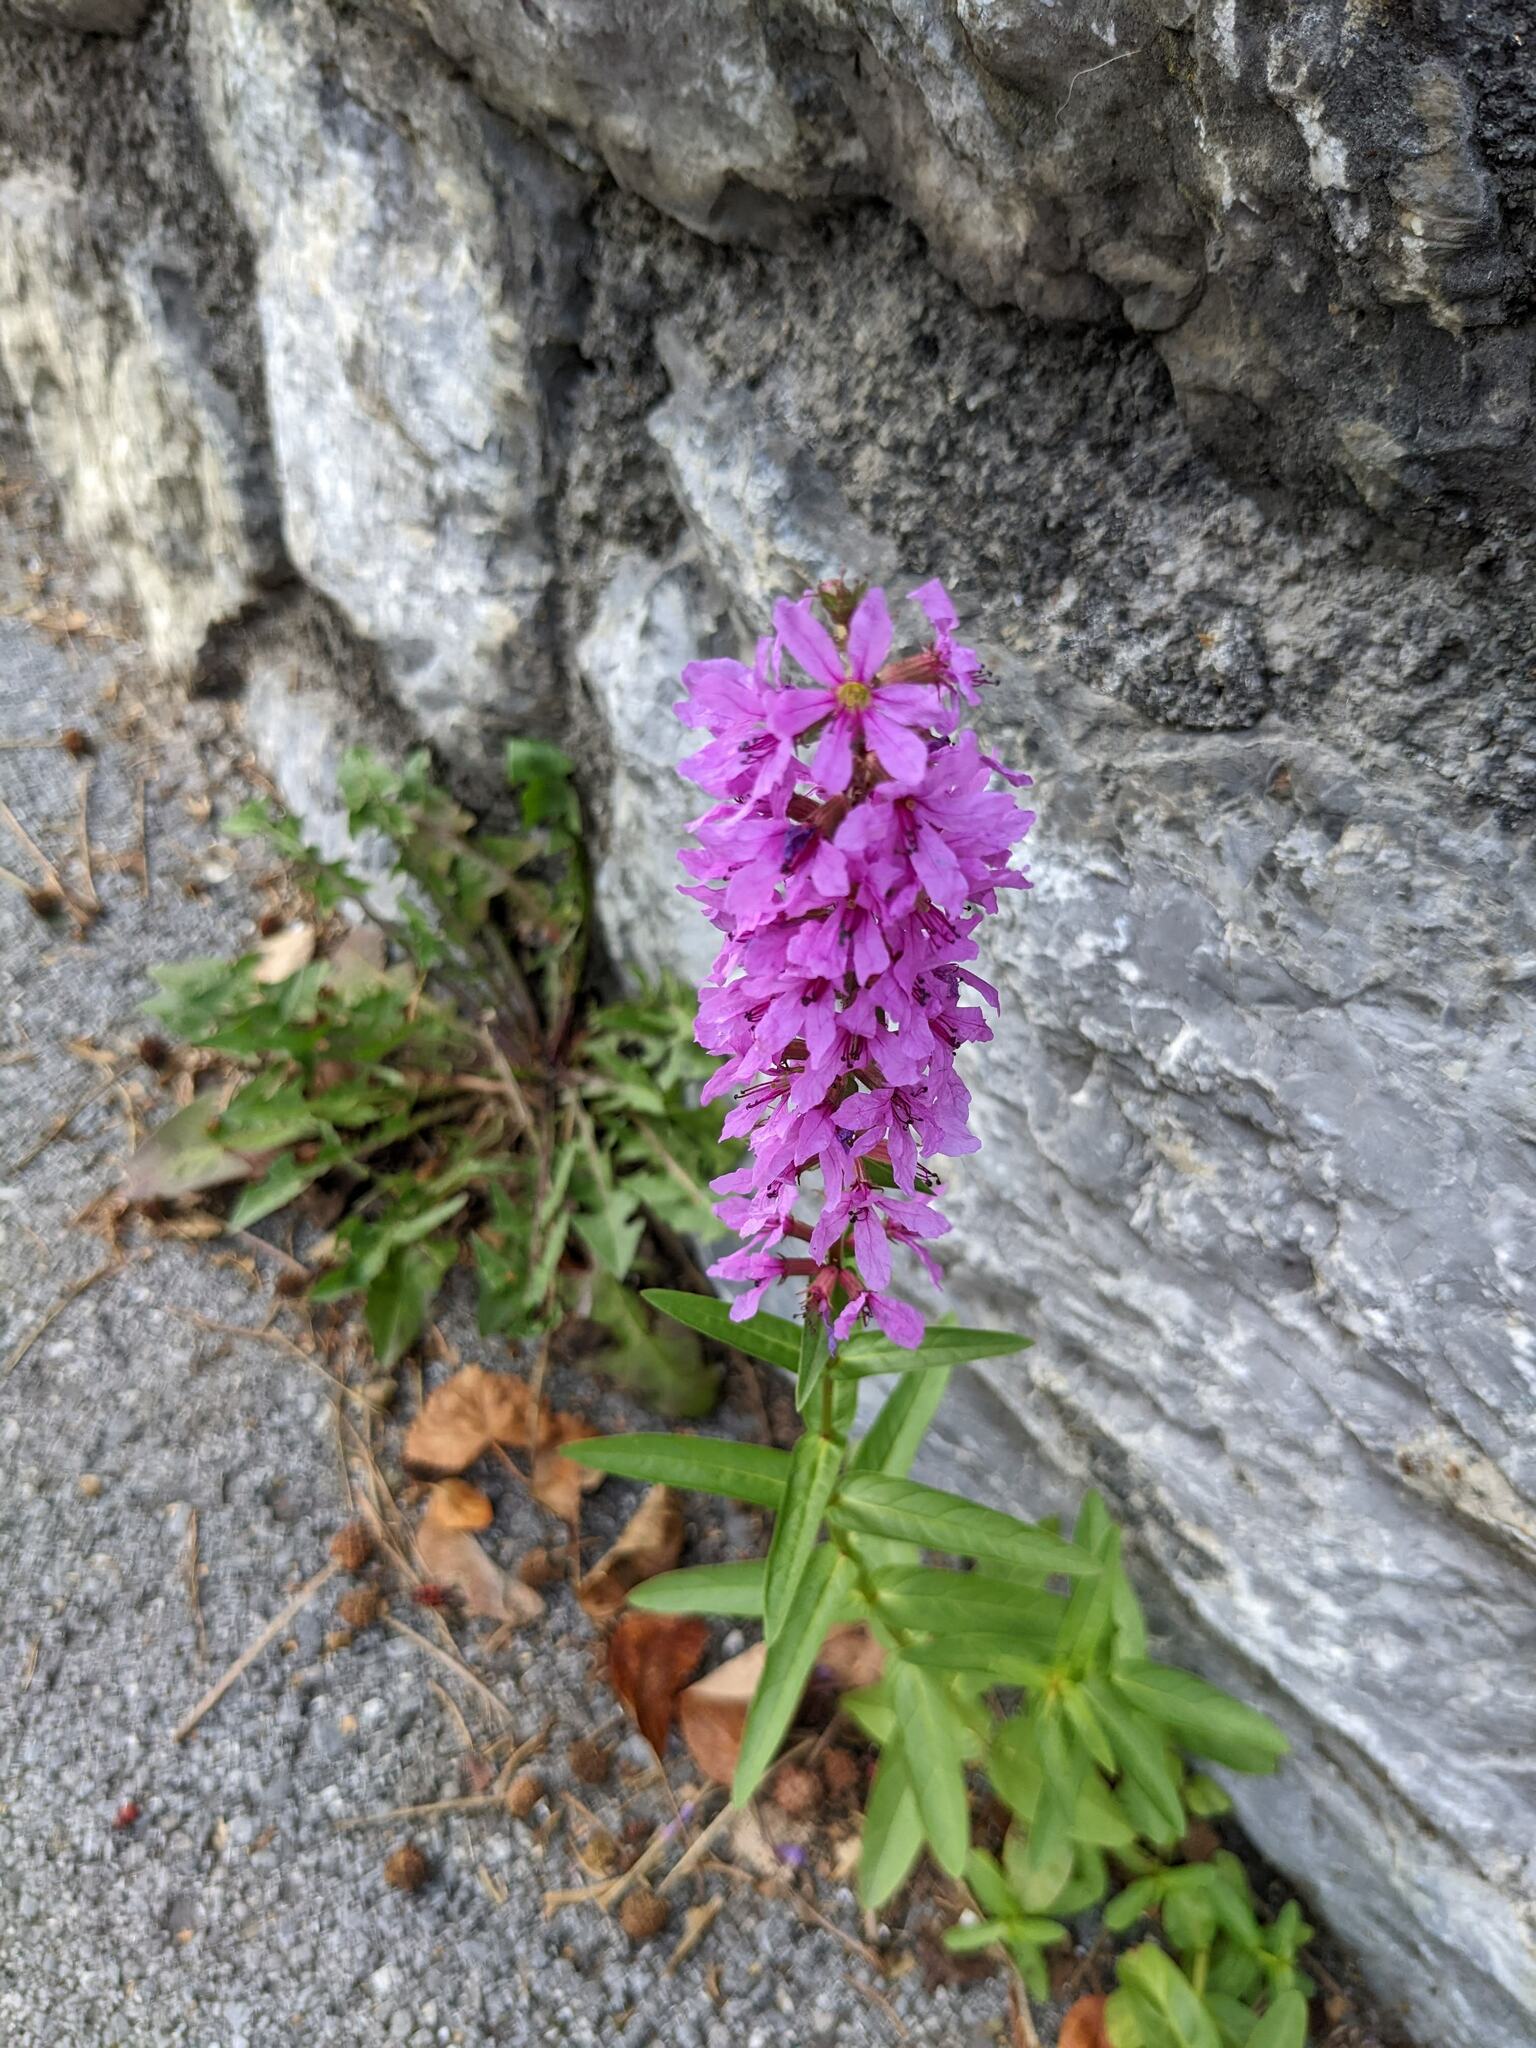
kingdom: Plantae
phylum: Tracheophyta
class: Magnoliopsida
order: Myrtales
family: Lythraceae
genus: Lythrum
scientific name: Lythrum salicaria
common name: Purple loosestrife
